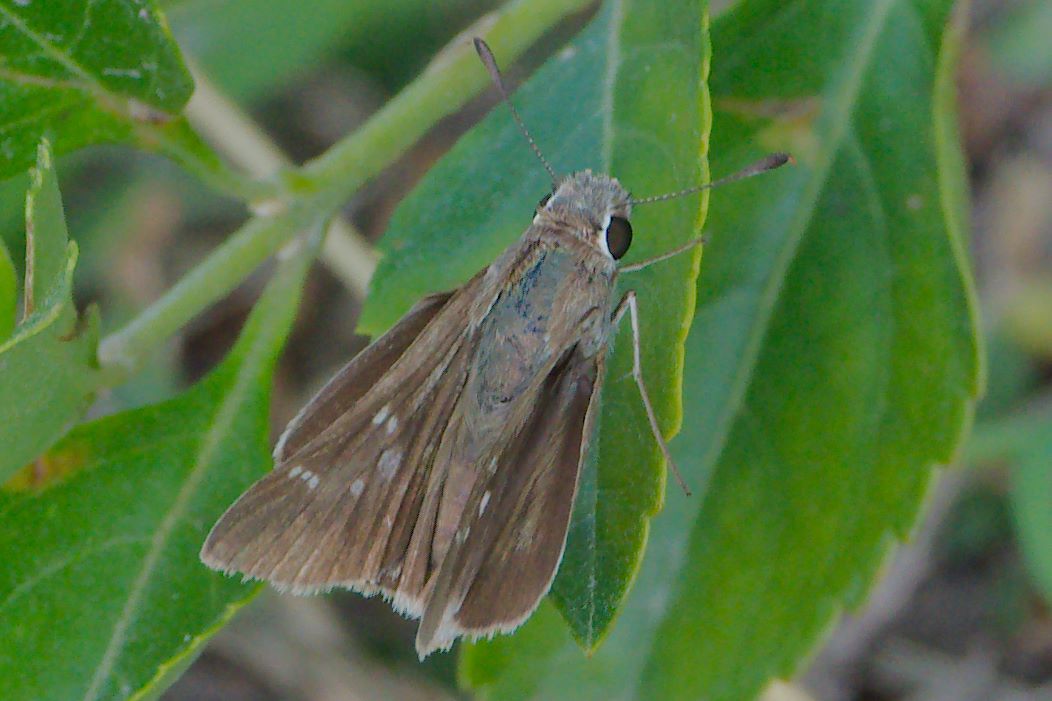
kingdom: Animalia
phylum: Arthropoda
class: Insecta
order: Lepidoptera
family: Hesperiidae
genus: Lerodea
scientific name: Lerodea eufala
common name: Eufala skipper
